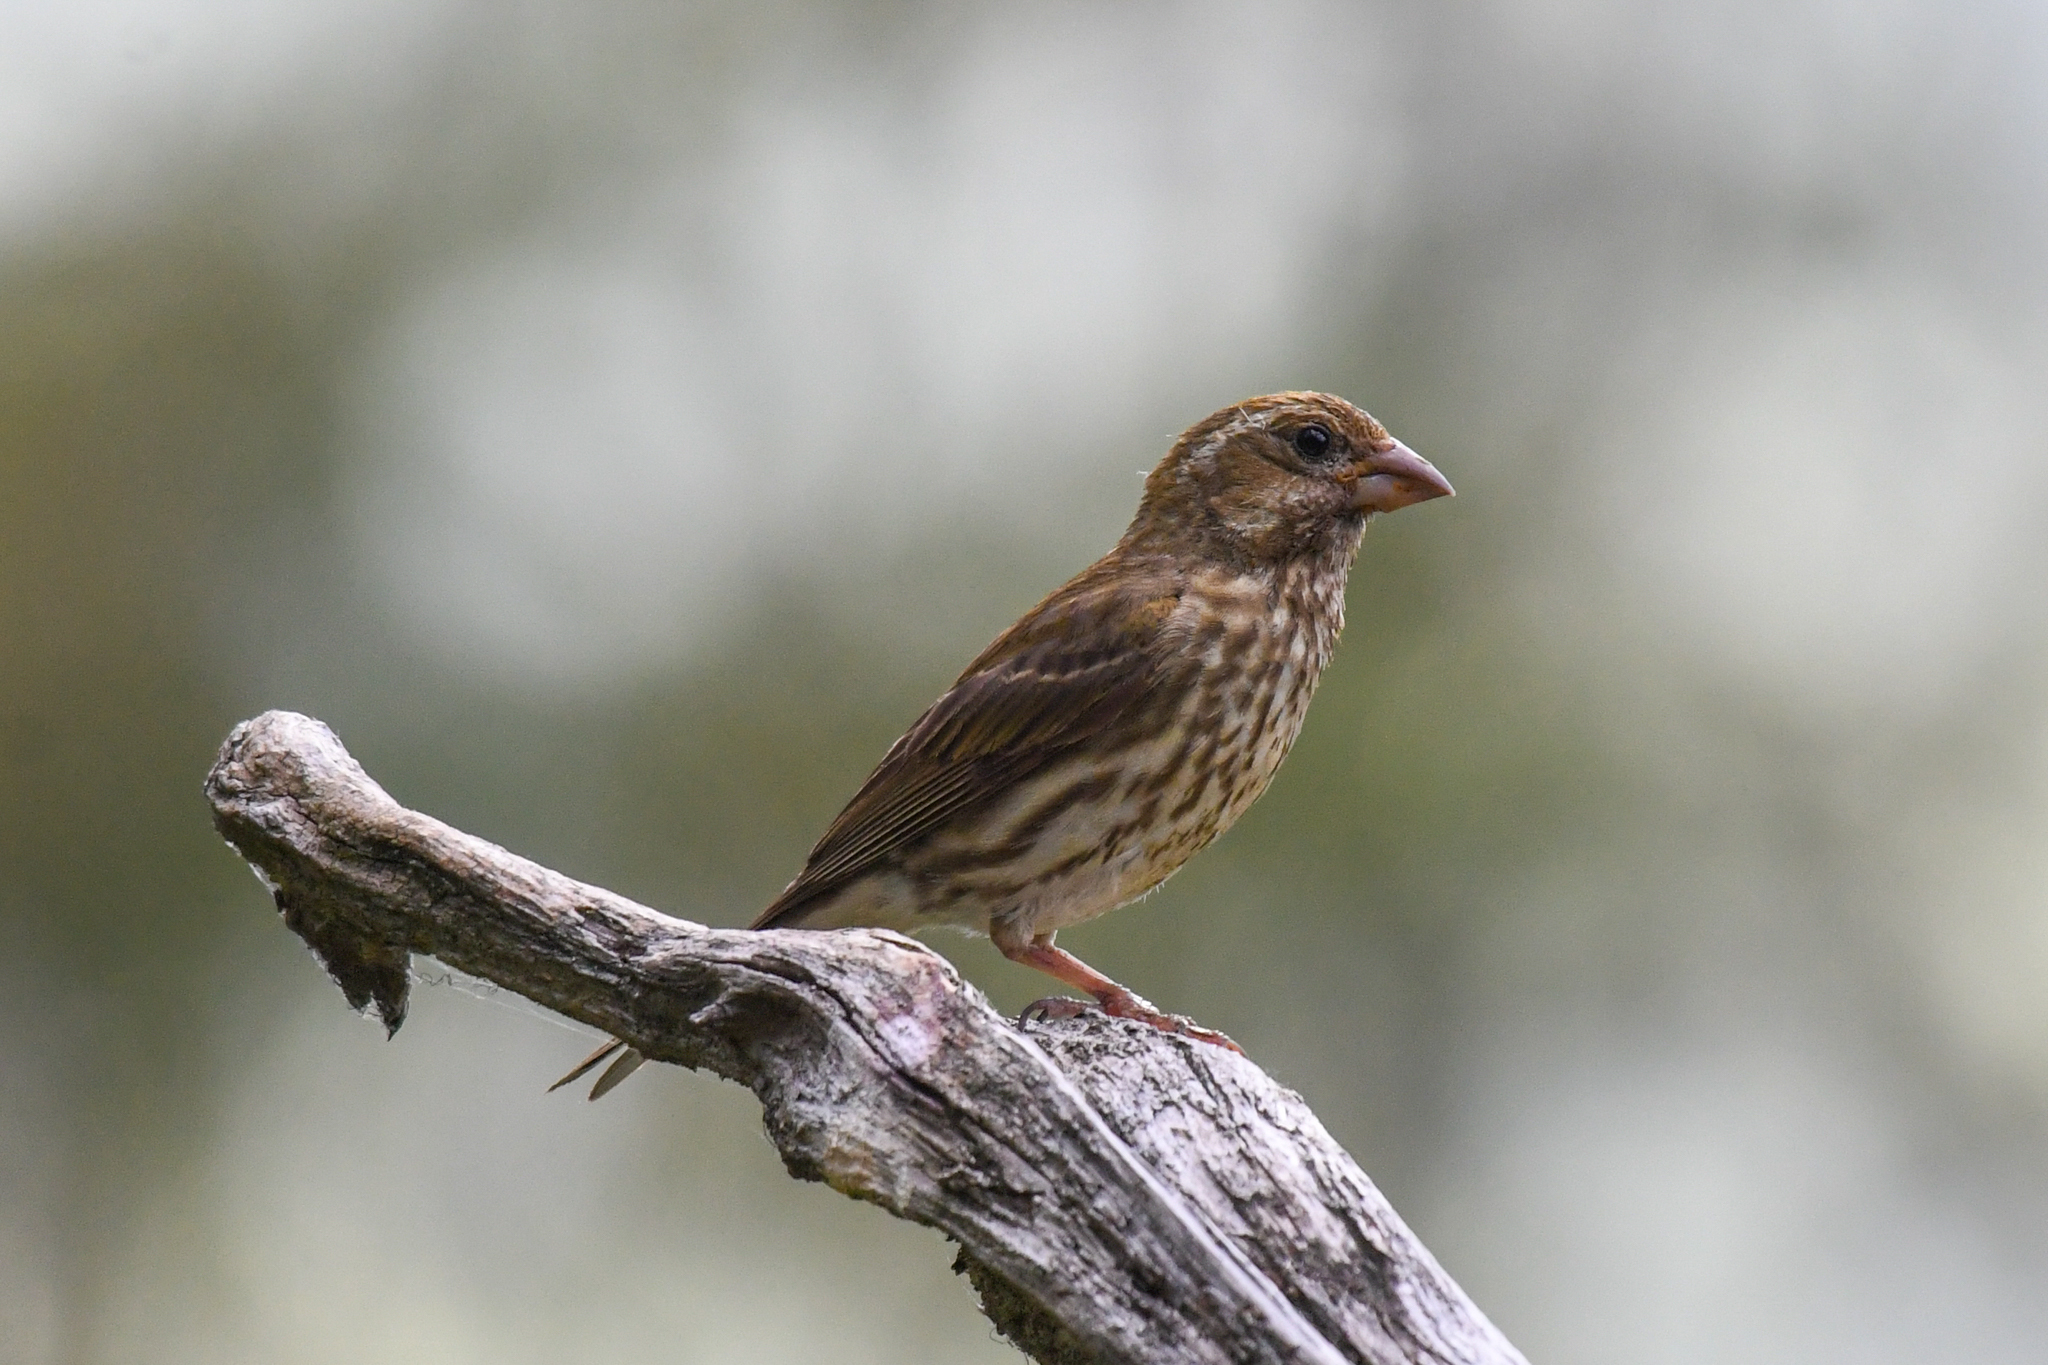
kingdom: Animalia
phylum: Chordata
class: Aves
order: Passeriformes
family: Fringillidae
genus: Haemorhous
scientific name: Haemorhous purpureus
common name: Purple finch
